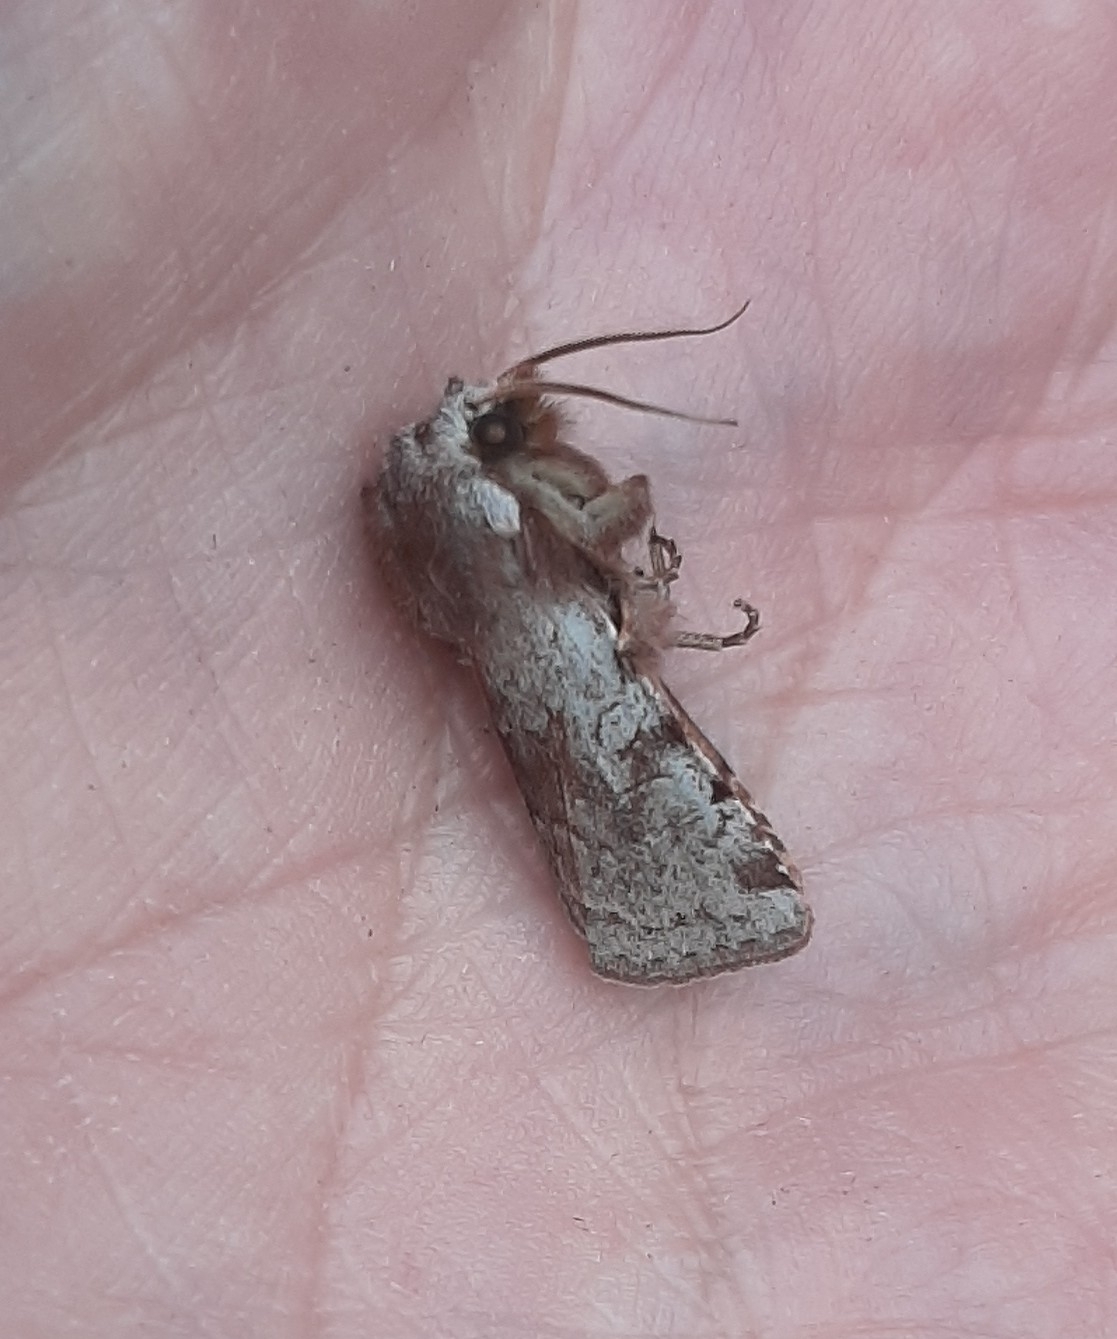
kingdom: Animalia
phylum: Arthropoda
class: Insecta
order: Lepidoptera
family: Noctuidae
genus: Cerastis
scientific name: Cerastis rubricosa
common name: Red chestnut
